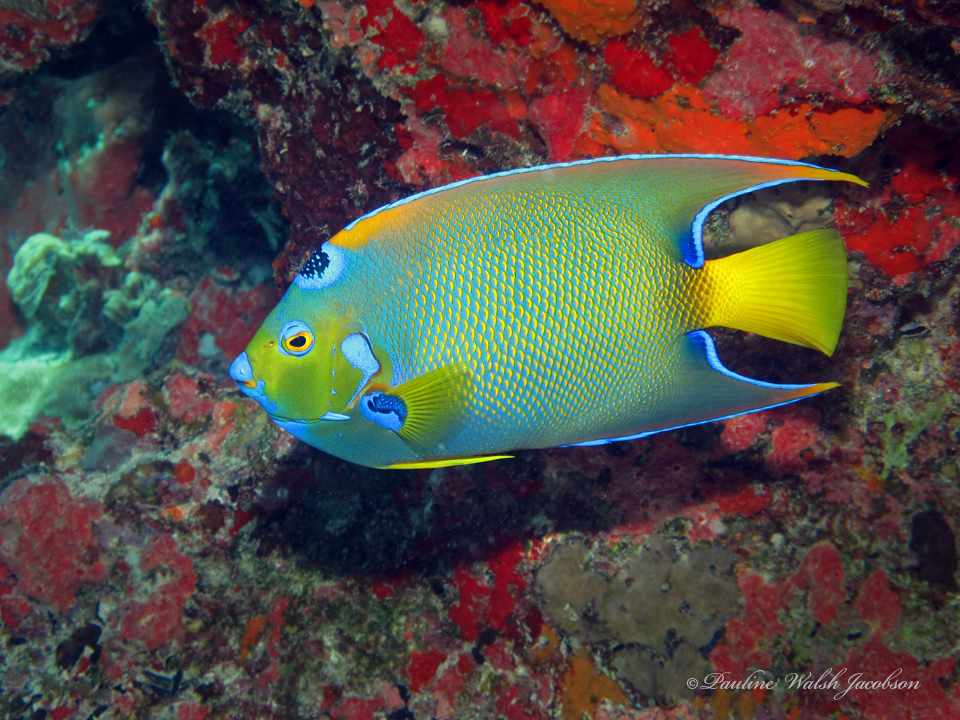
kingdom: Animalia
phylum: Chordata
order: Perciformes
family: Pomacanthidae
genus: Holacanthus
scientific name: Holacanthus ciliaris
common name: Queen angelfish
